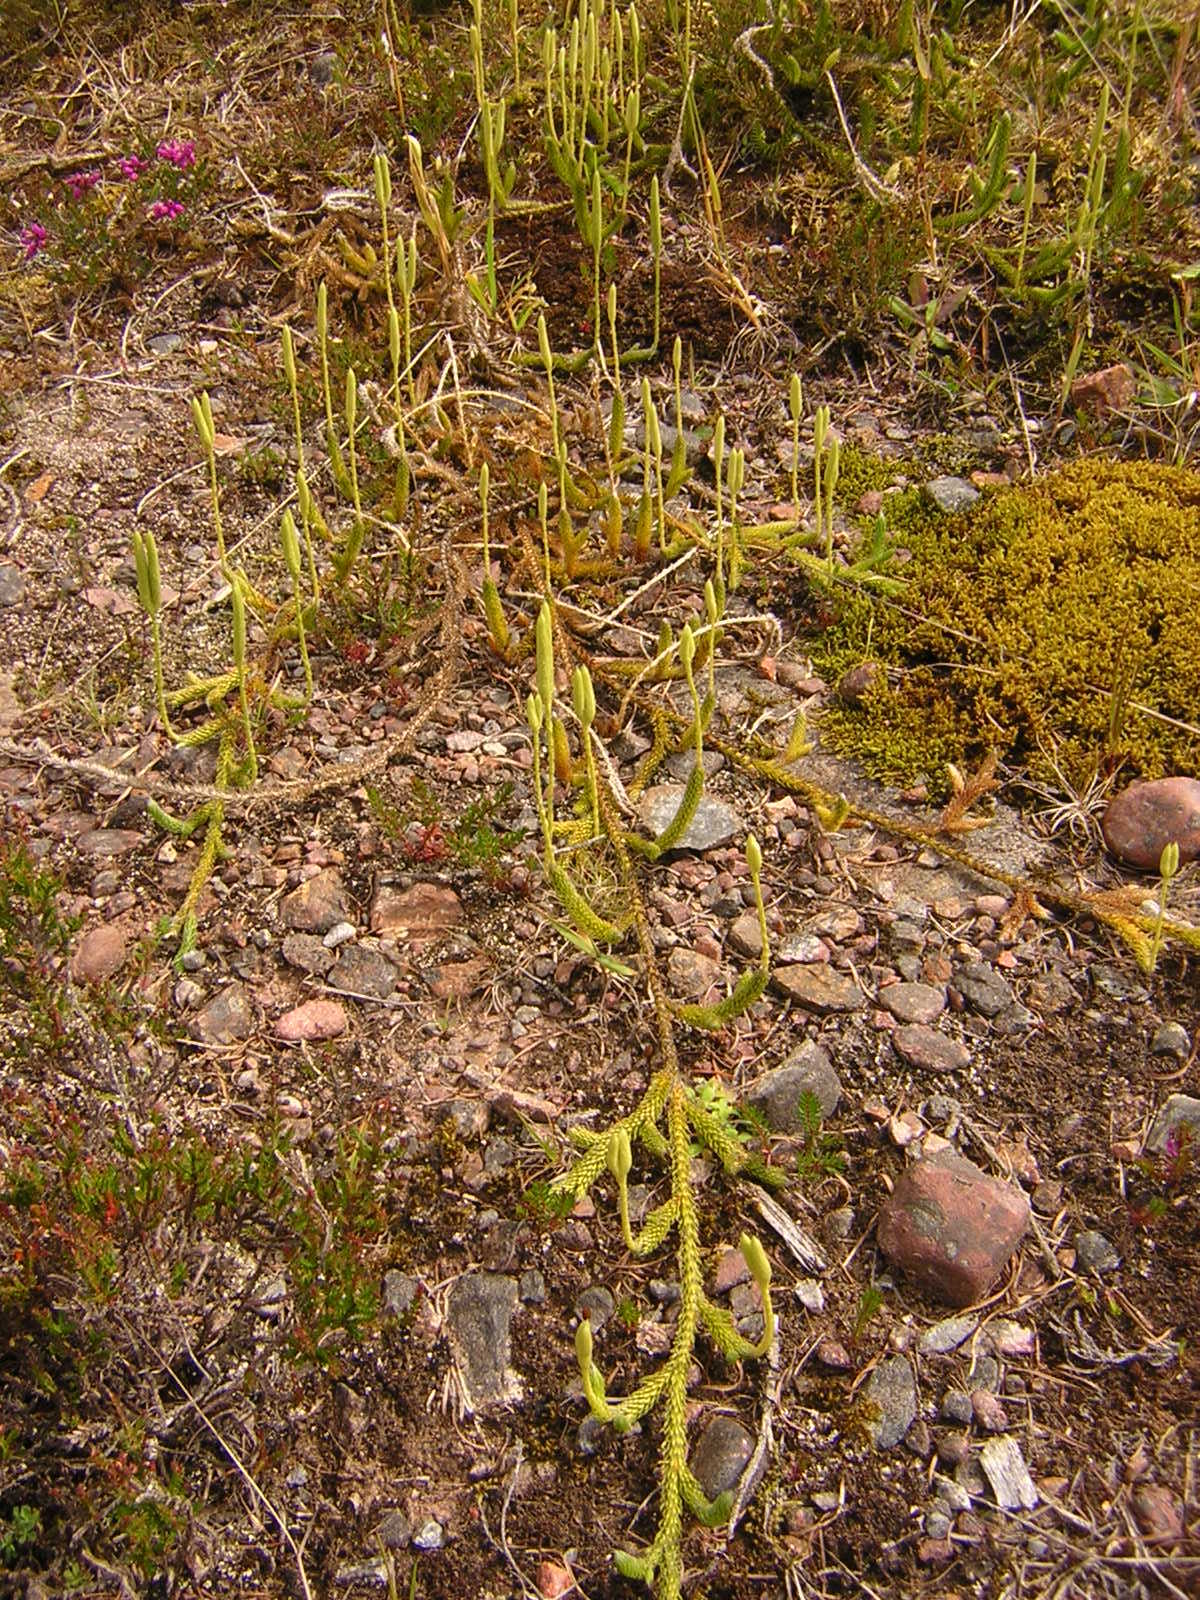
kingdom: Plantae
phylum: Tracheophyta
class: Lycopodiopsida
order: Lycopodiales
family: Lycopodiaceae
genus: Lycopodium
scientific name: Lycopodium clavatum
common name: Stag's-horn clubmoss
